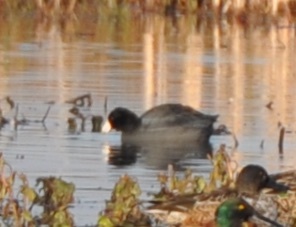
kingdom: Animalia
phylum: Chordata
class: Aves
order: Gruiformes
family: Rallidae
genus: Fulica
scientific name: Fulica americana
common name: American coot
